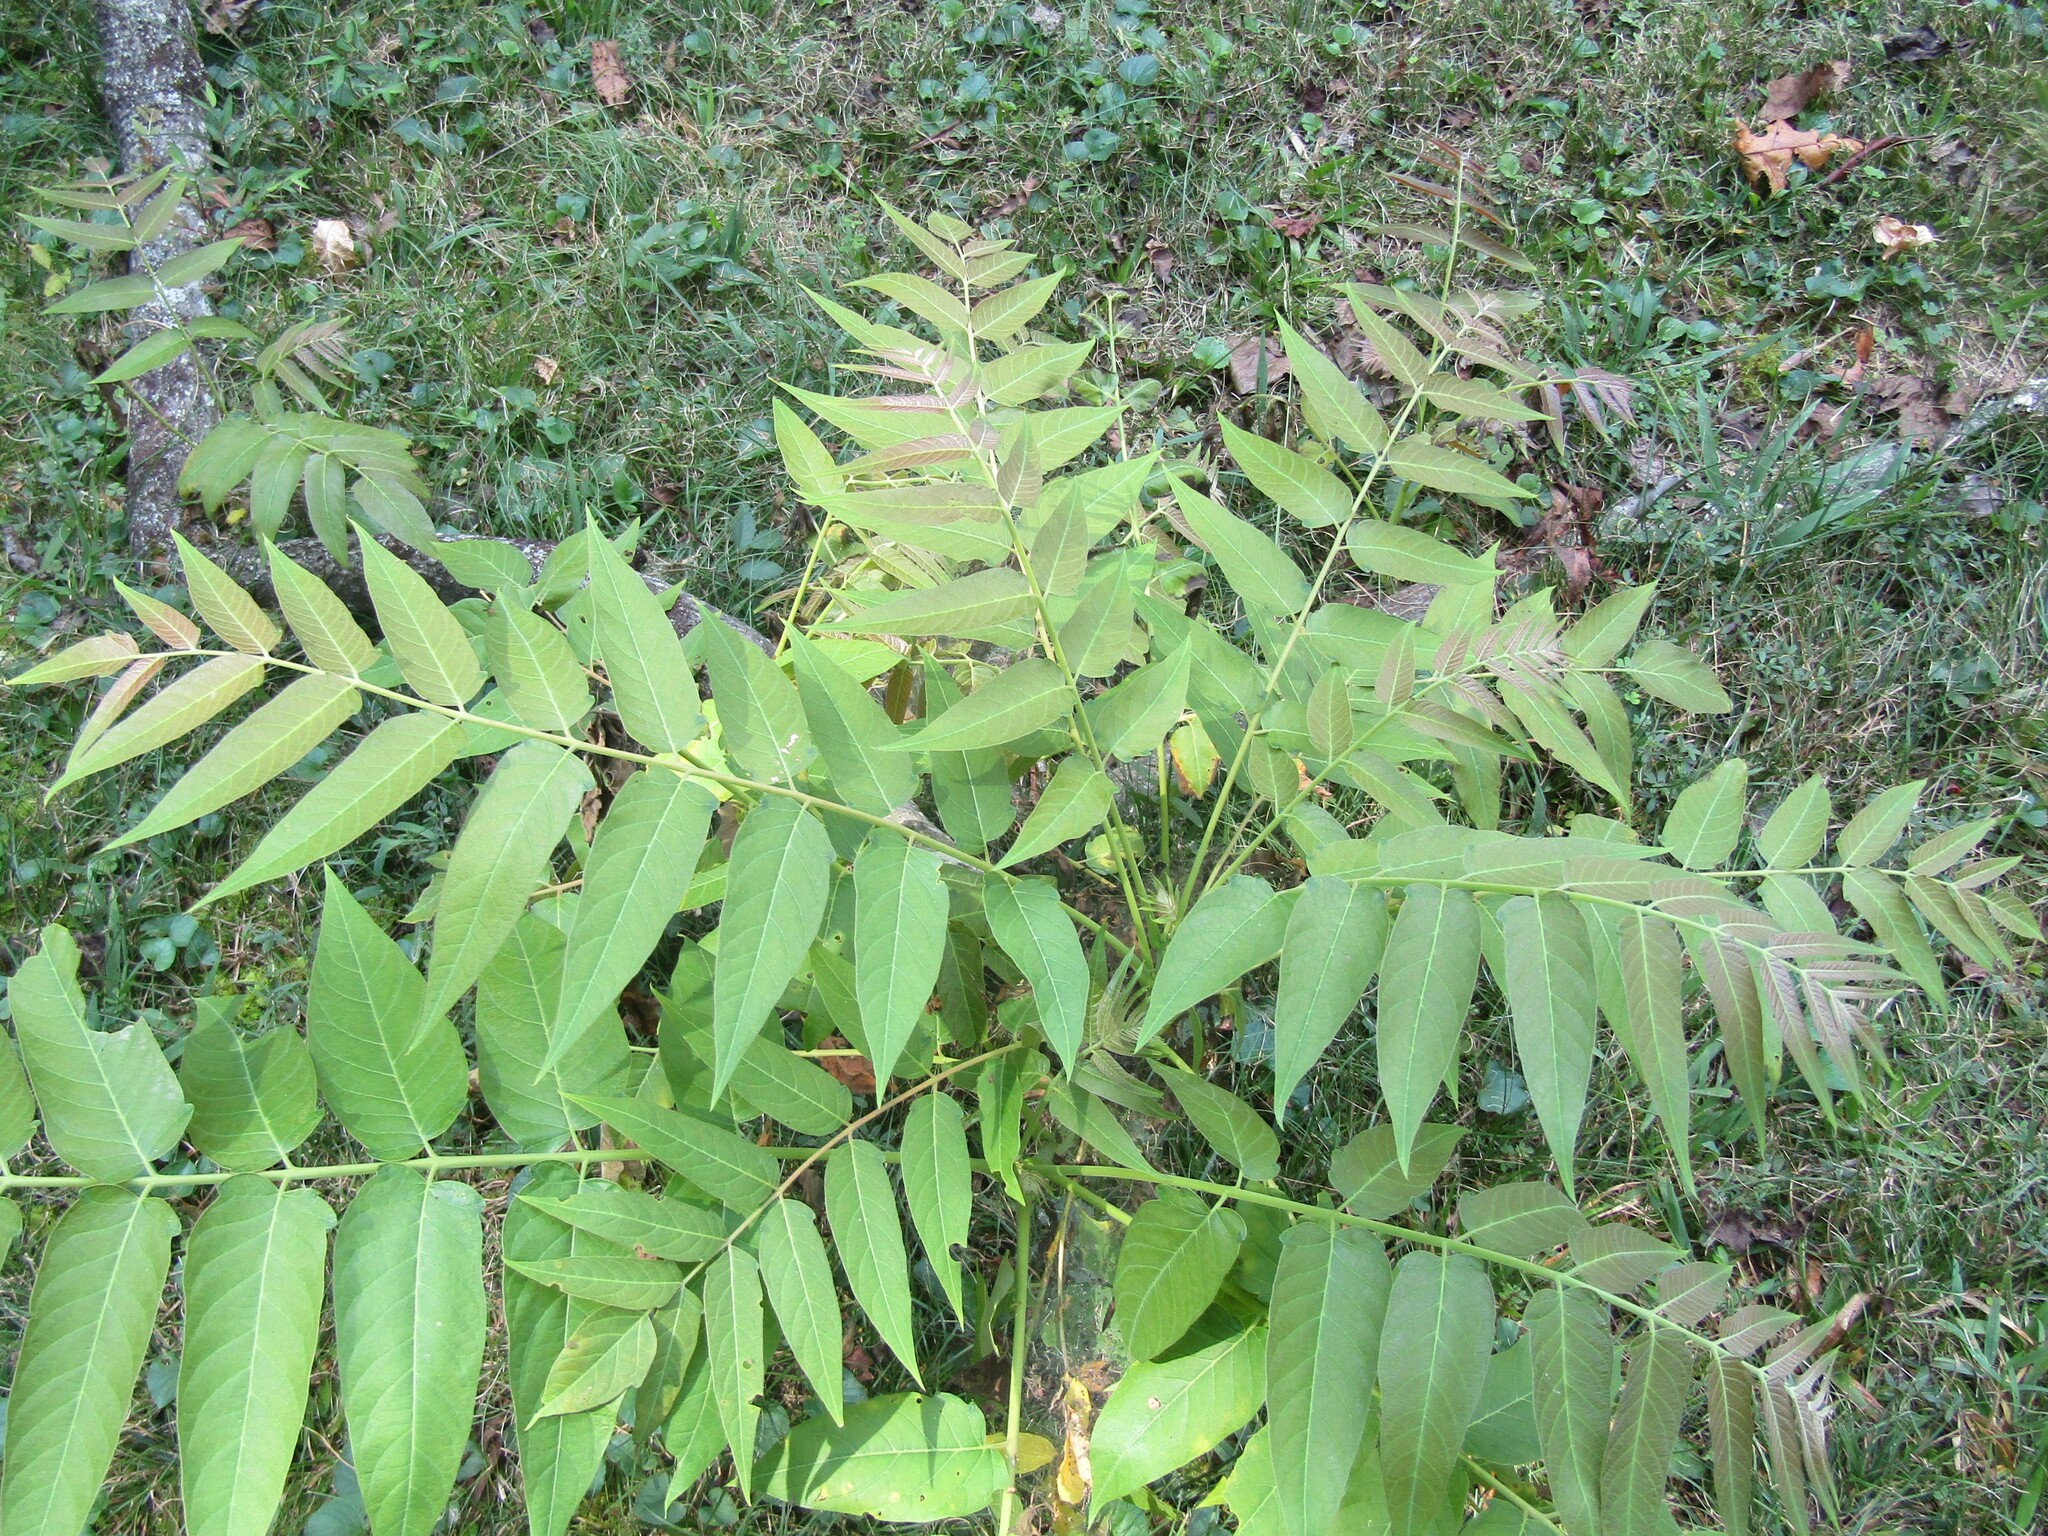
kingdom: Plantae
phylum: Tracheophyta
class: Magnoliopsida
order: Sapindales
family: Simaroubaceae
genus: Ailanthus
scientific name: Ailanthus altissima
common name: Tree-of-heaven
